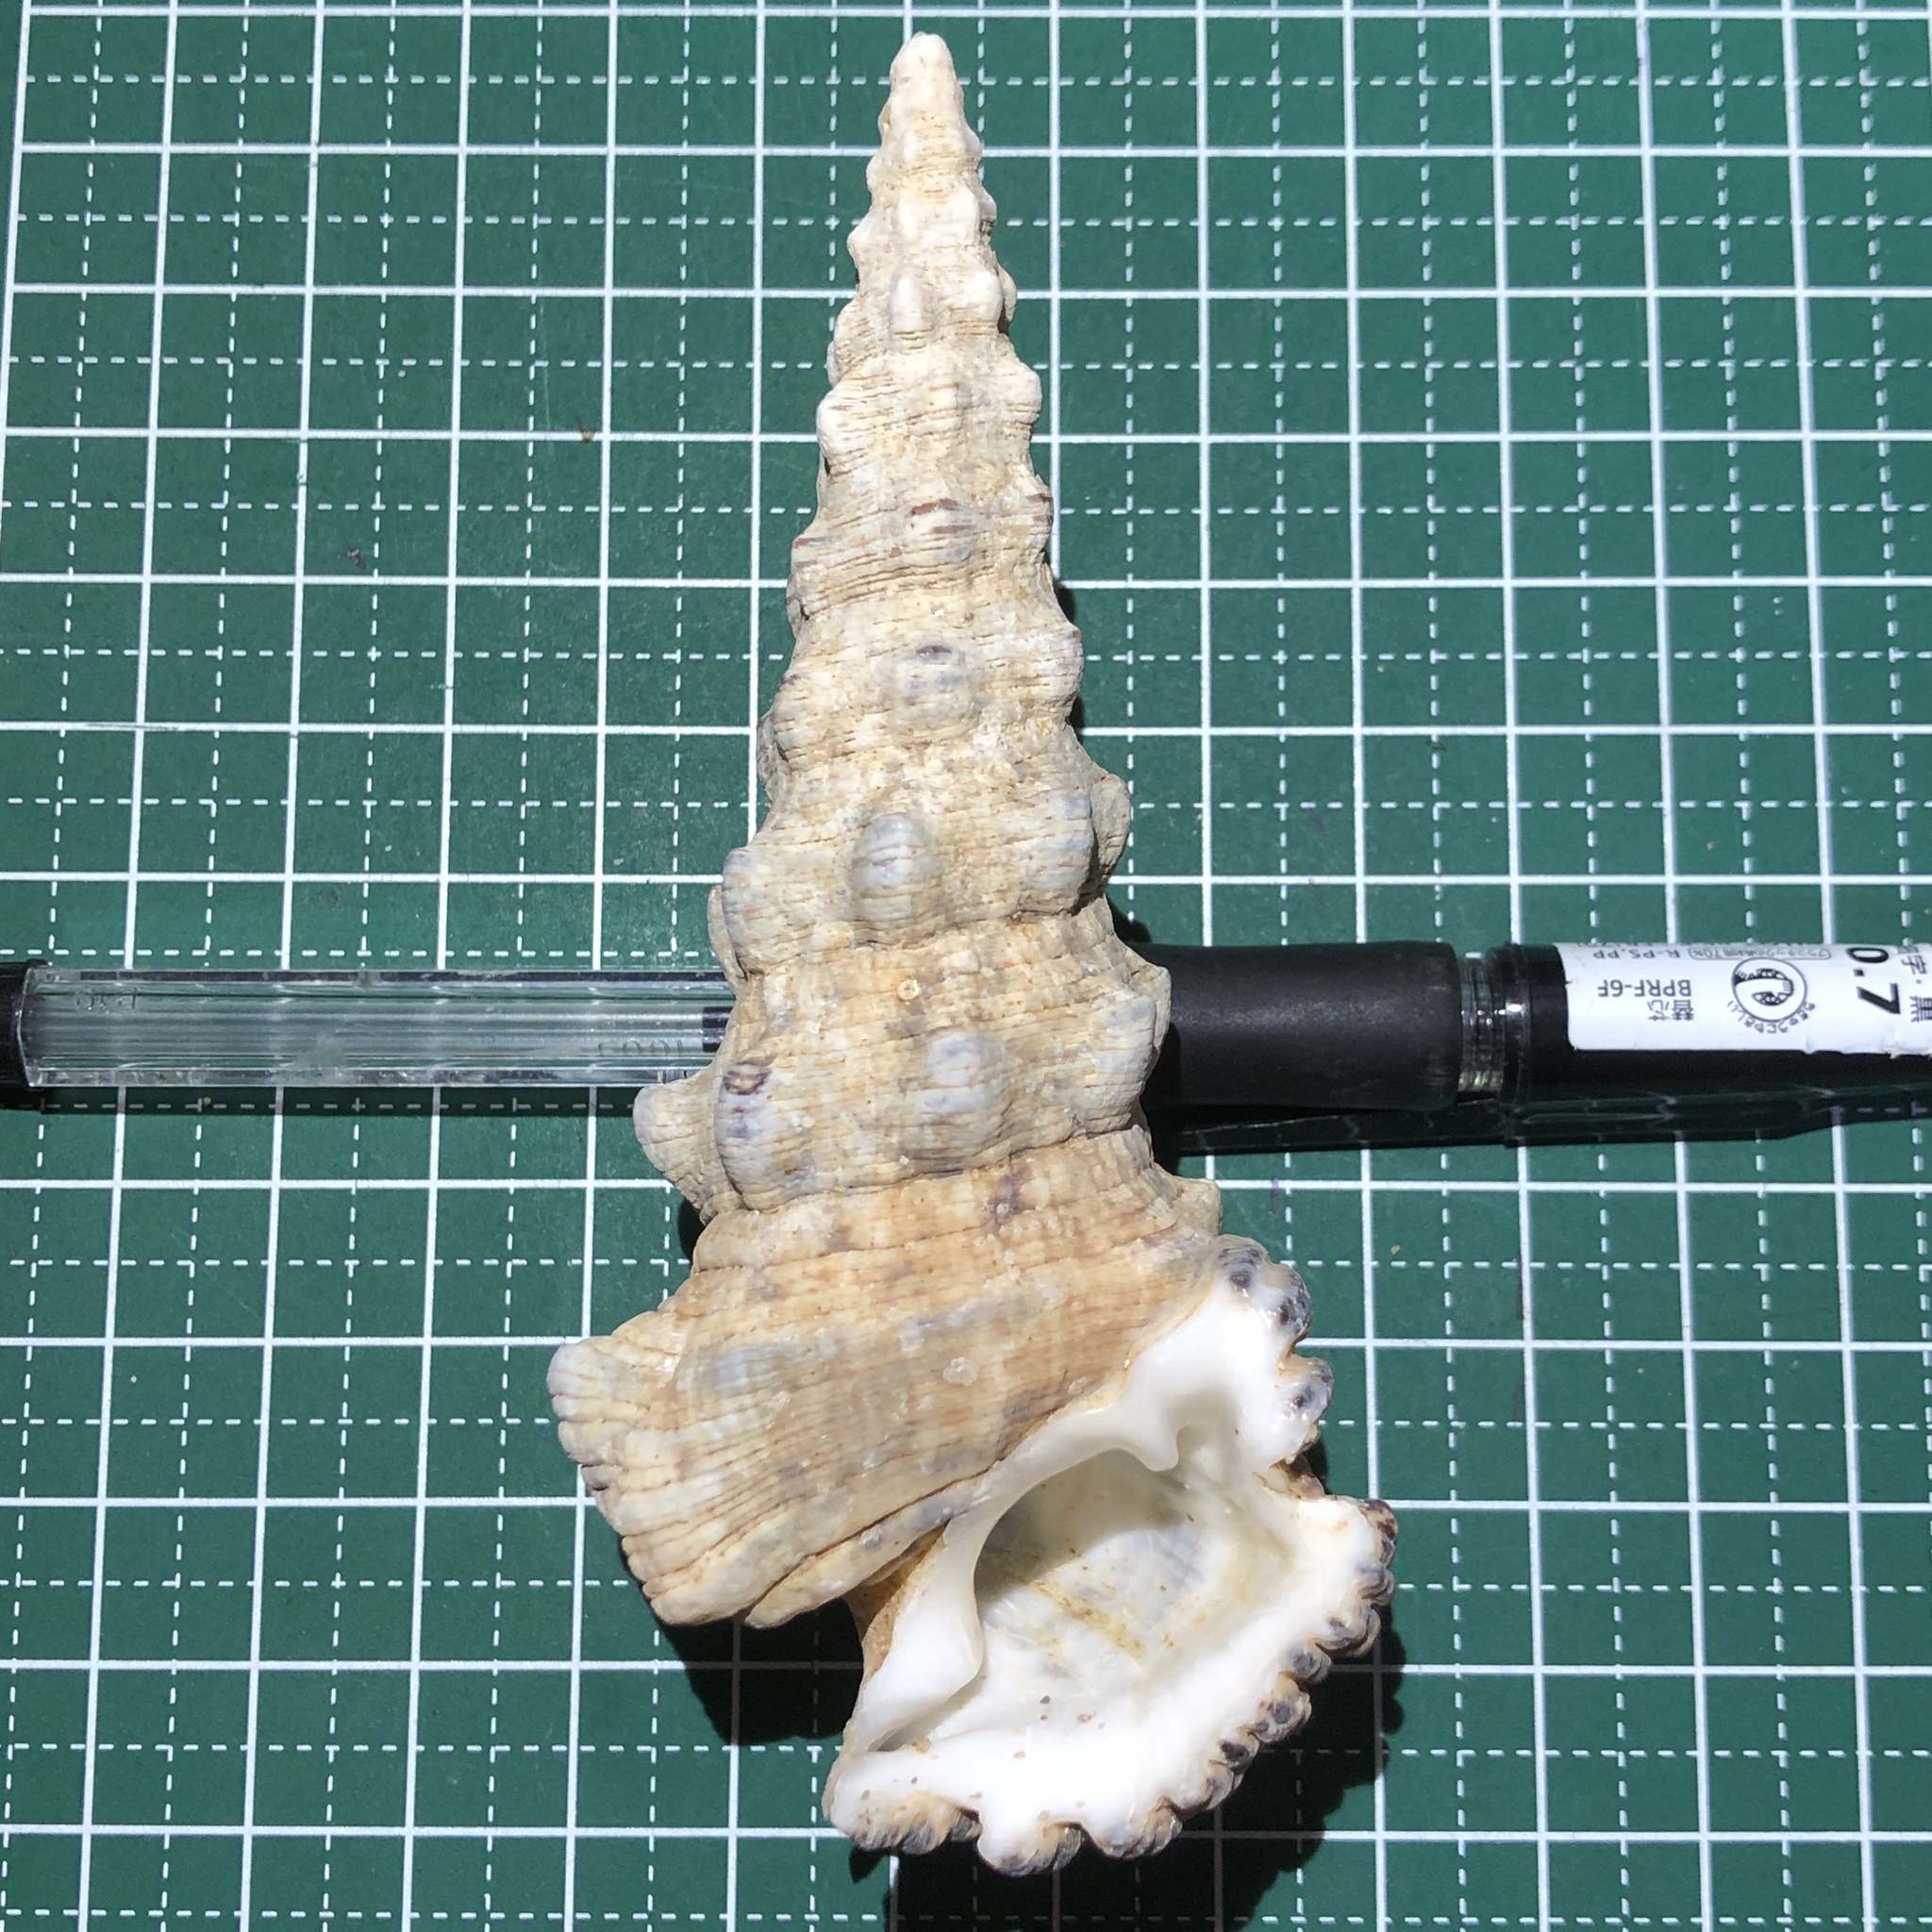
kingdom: Animalia
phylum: Mollusca
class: Gastropoda
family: Cerithiidae
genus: Cerithium
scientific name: Cerithium nodulosum
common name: Nadelschnecke giant knobbed cerith
